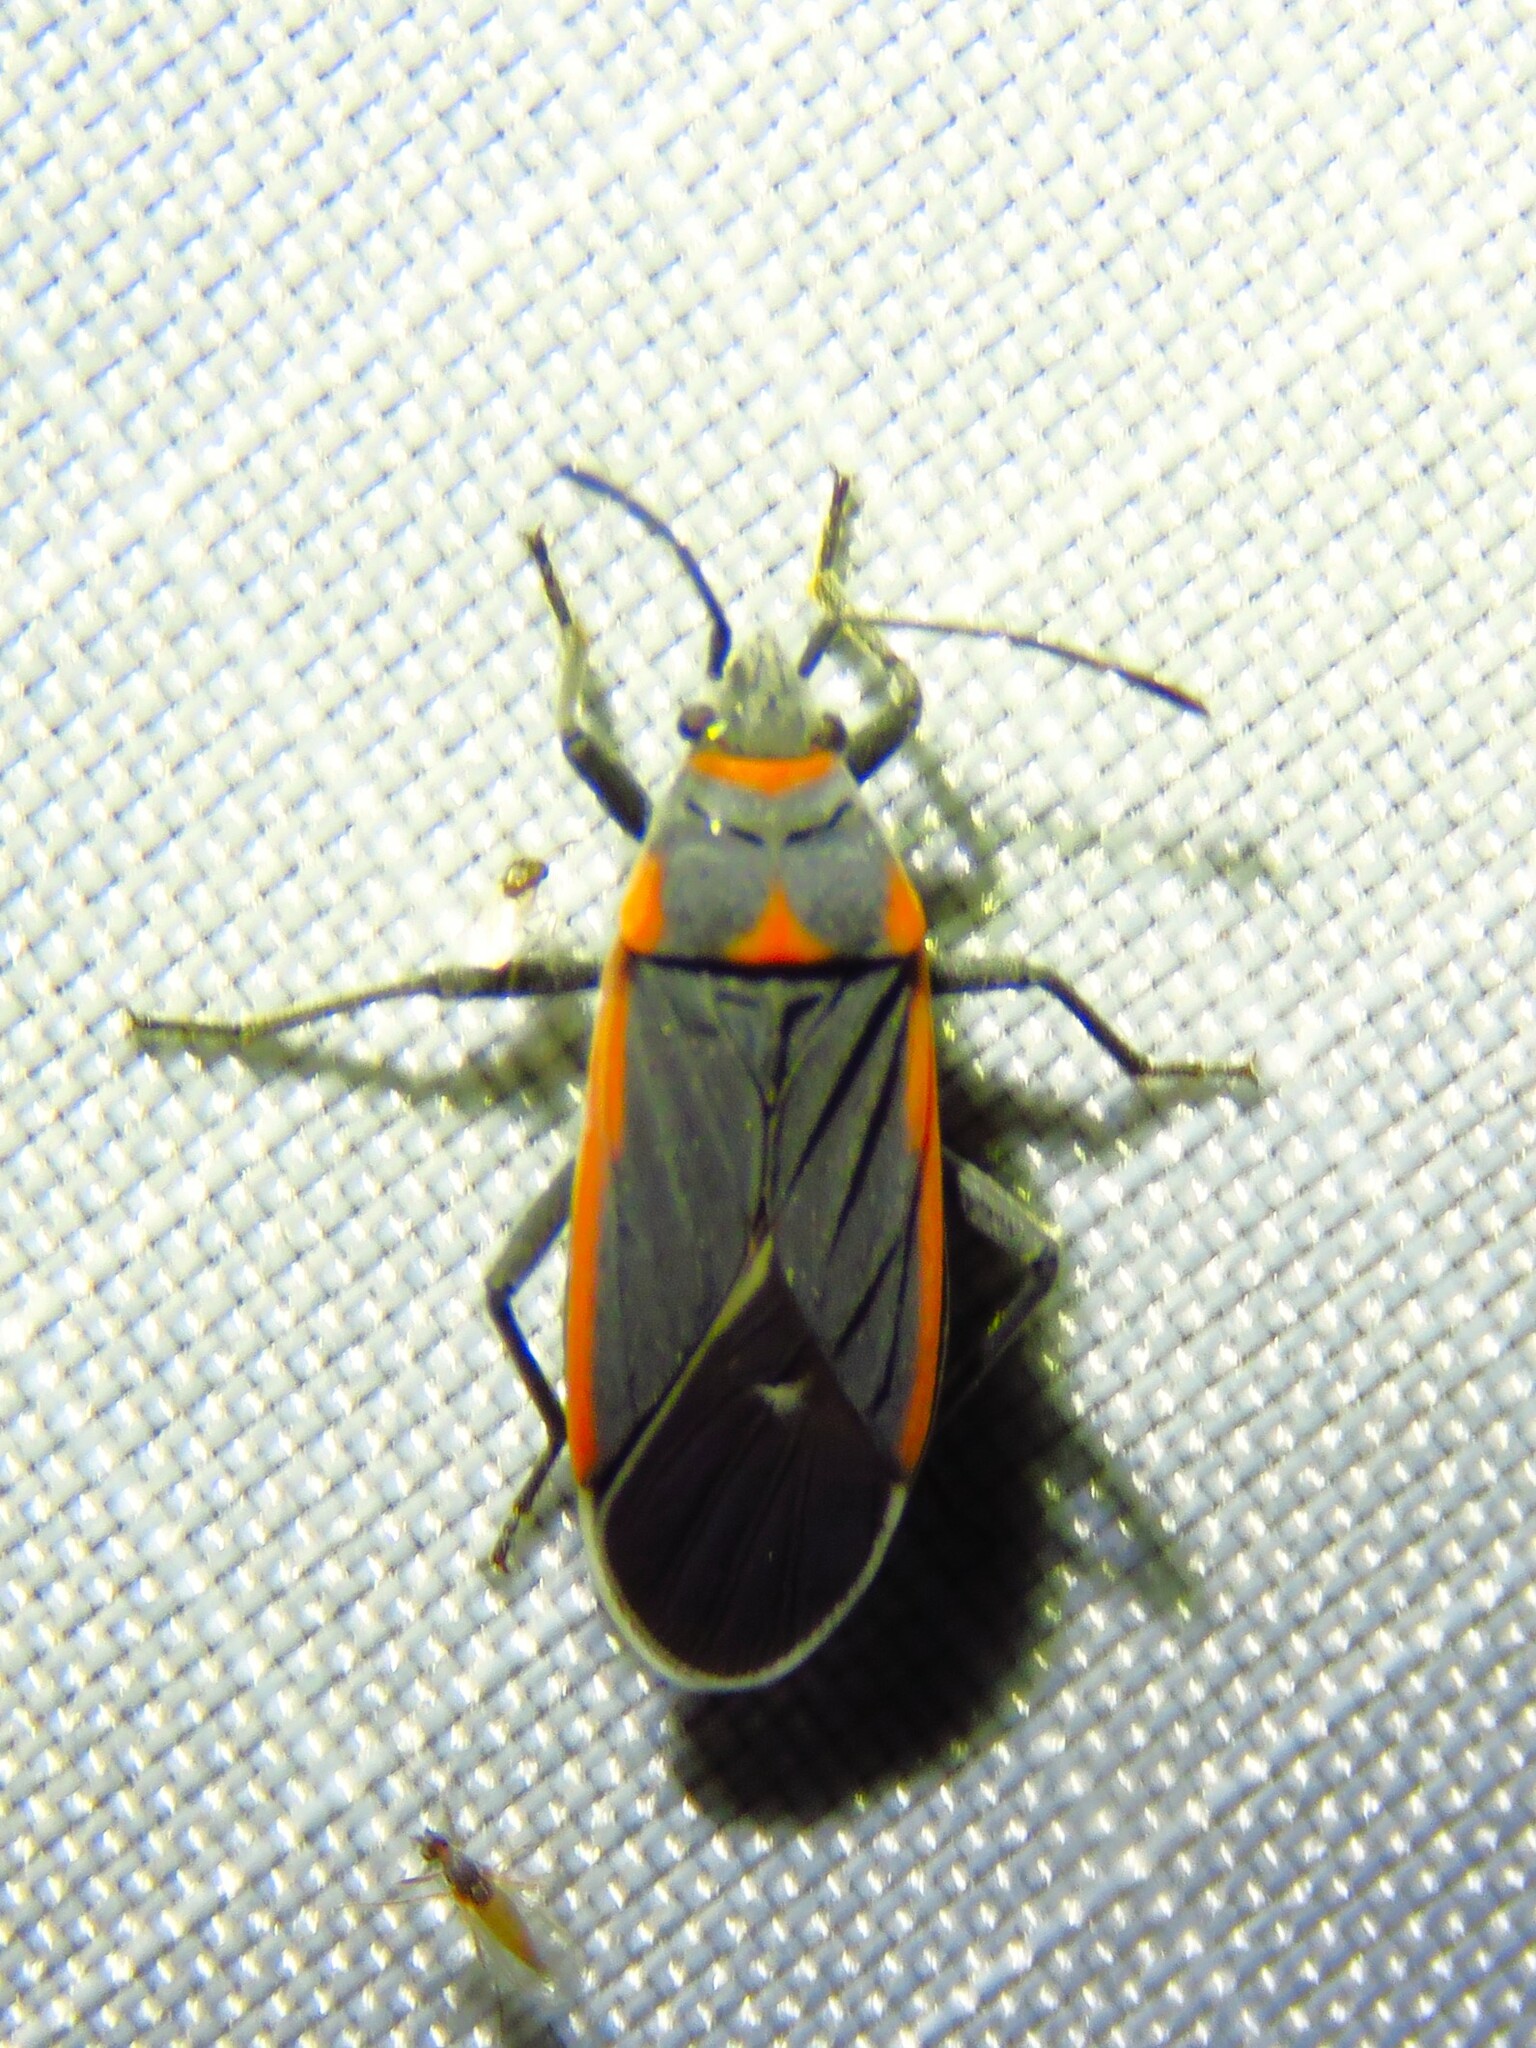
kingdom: Animalia
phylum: Arthropoda
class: Insecta
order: Hemiptera
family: Lygaeidae
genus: Melacoryphus
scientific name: Melacoryphus lateralis
